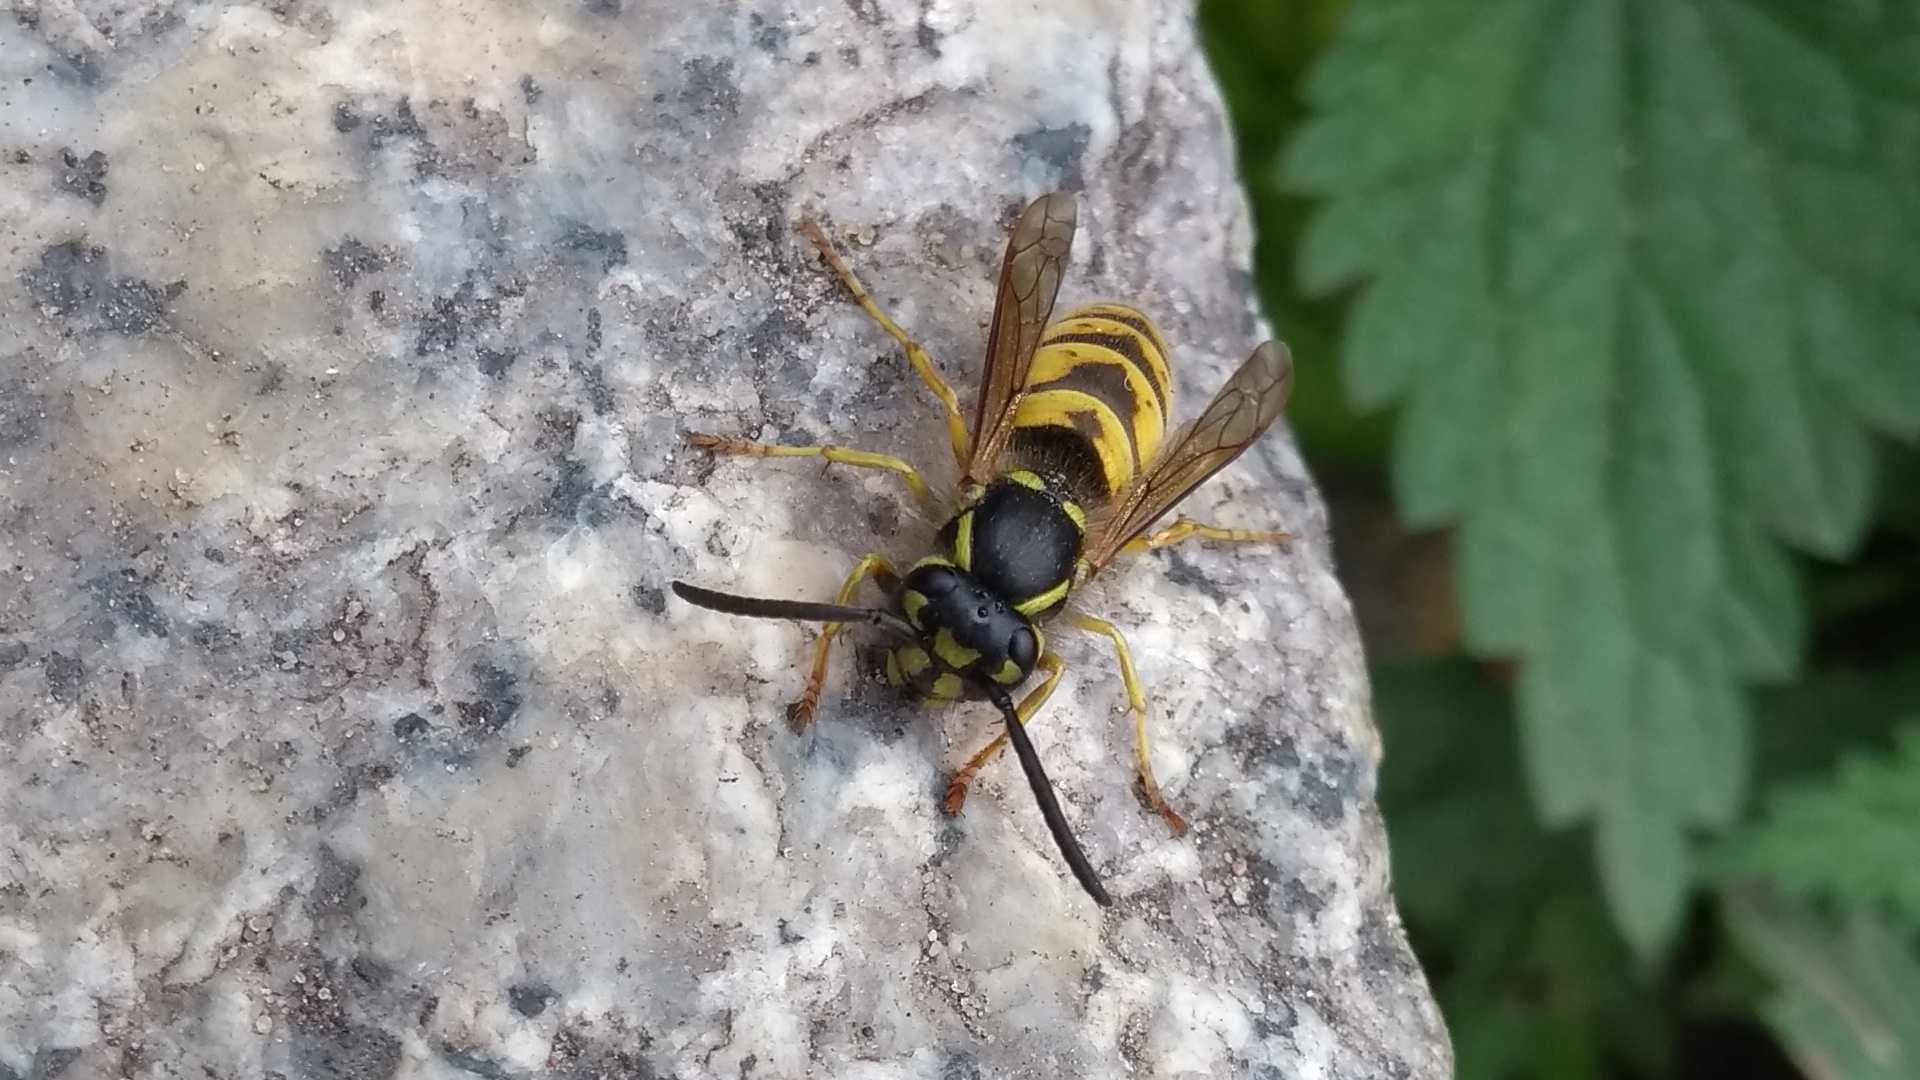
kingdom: Animalia
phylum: Arthropoda
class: Insecta
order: Hymenoptera
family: Vespidae
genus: Vespula
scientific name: Vespula vulgaris
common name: Common wasp
